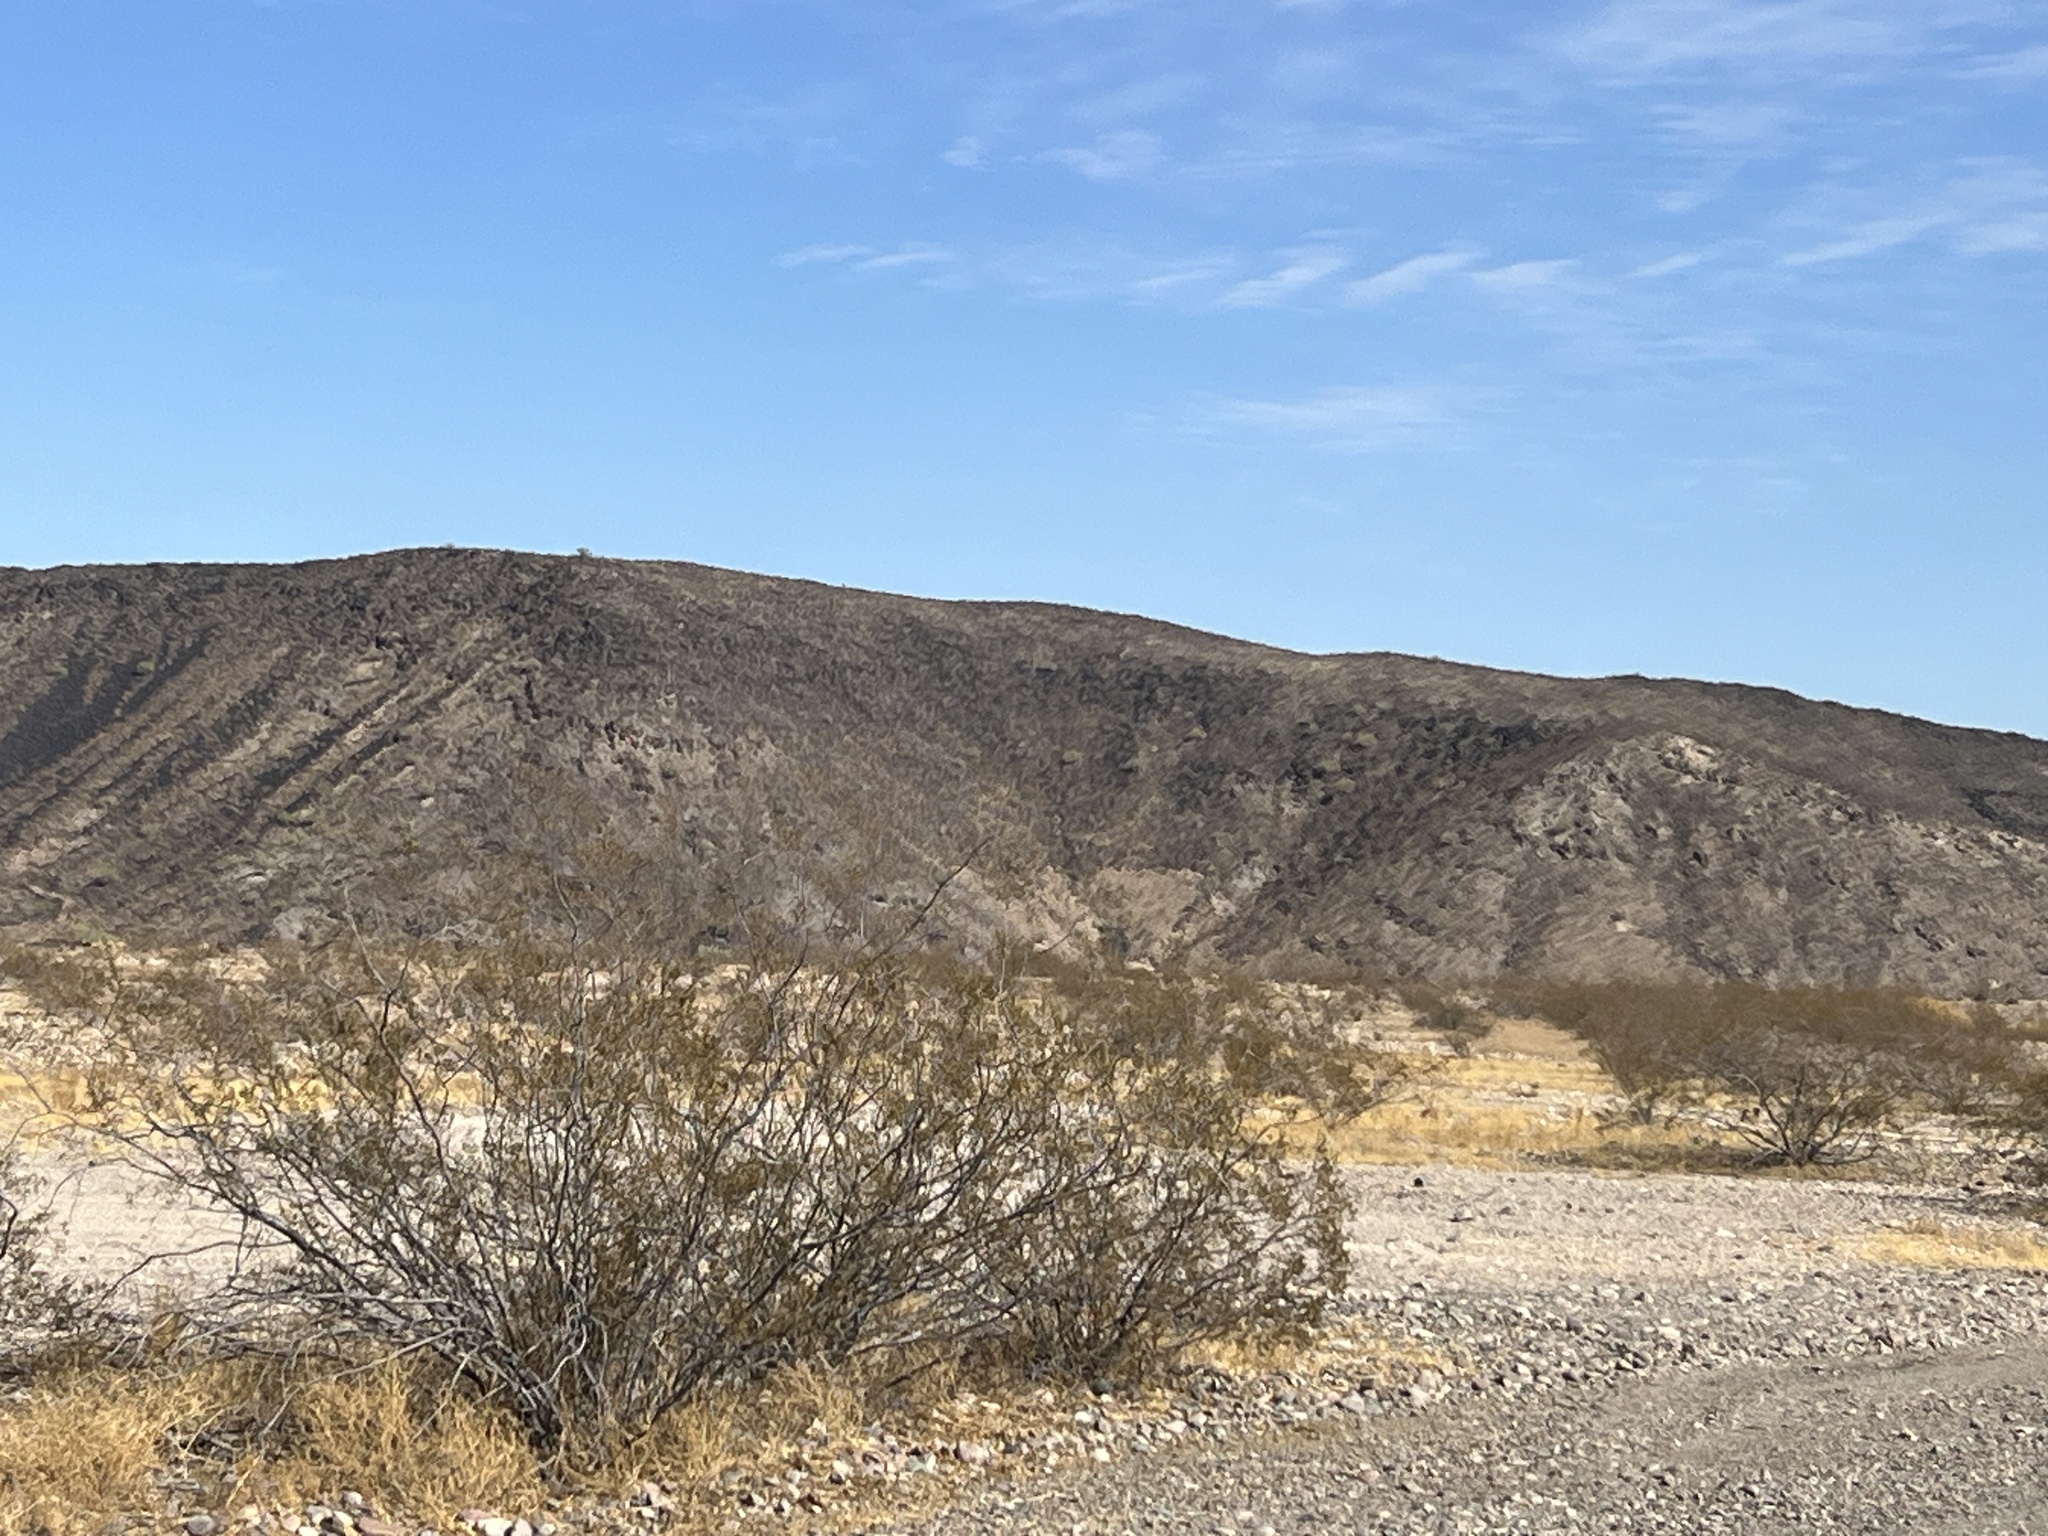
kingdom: Plantae
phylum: Tracheophyta
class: Magnoliopsida
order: Zygophyllales
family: Zygophyllaceae
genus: Larrea
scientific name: Larrea tridentata
